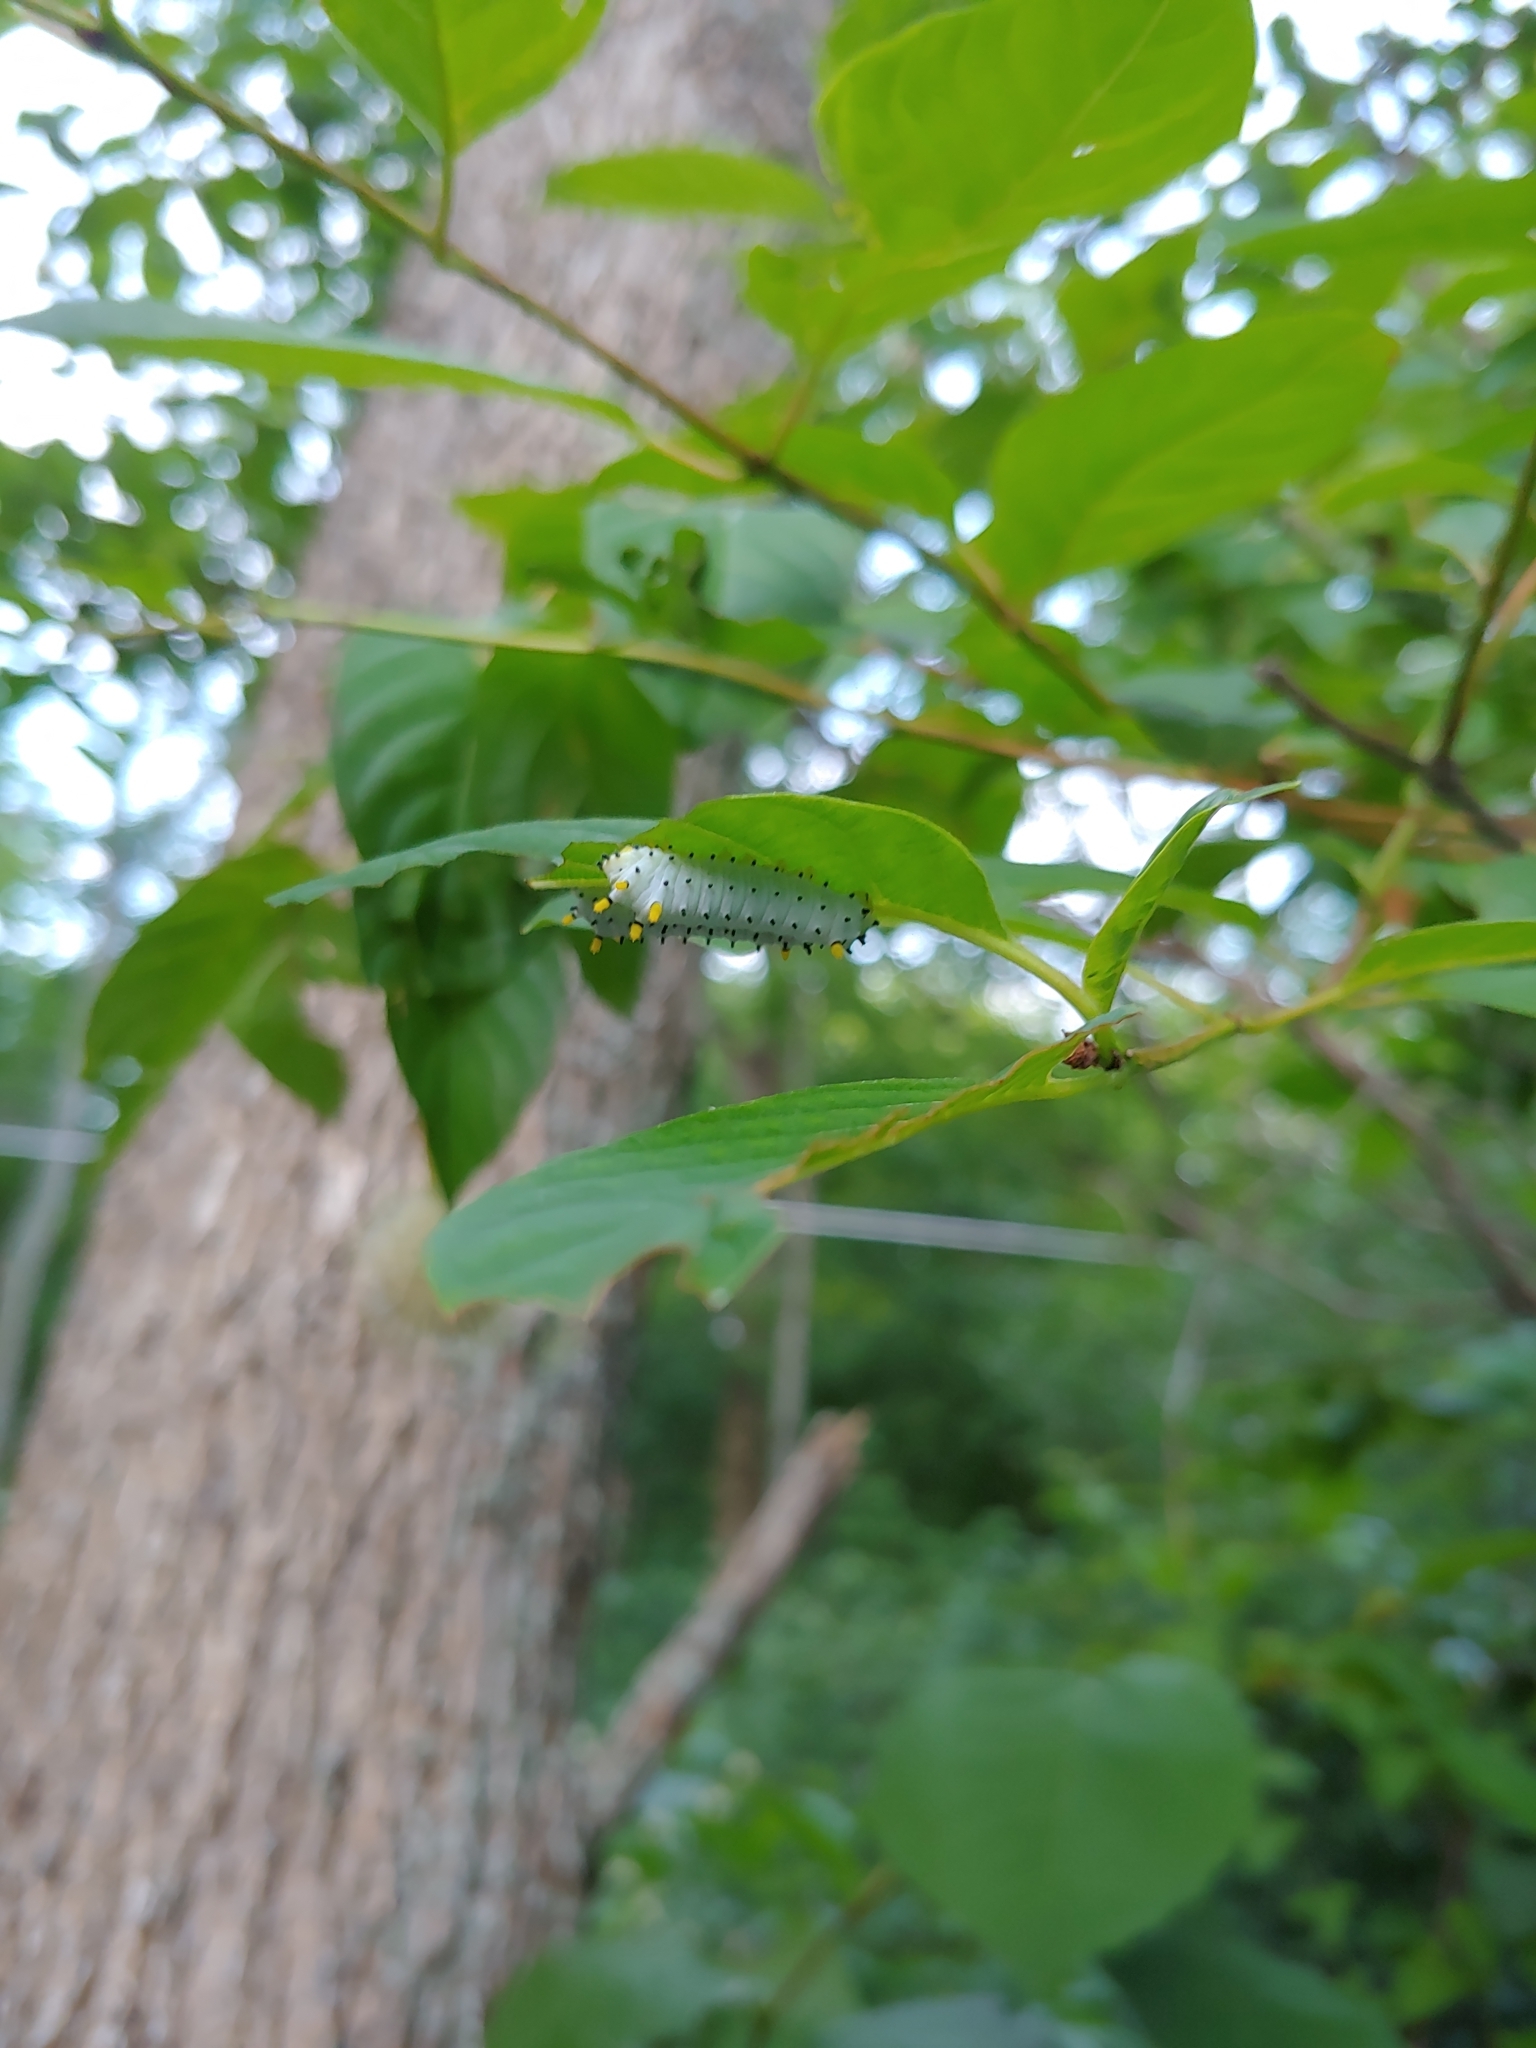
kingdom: Animalia
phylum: Arthropoda
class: Insecta
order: Lepidoptera
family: Saturniidae
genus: Callosamia
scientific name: Callosamia promethea
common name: Promethea silkmoth
